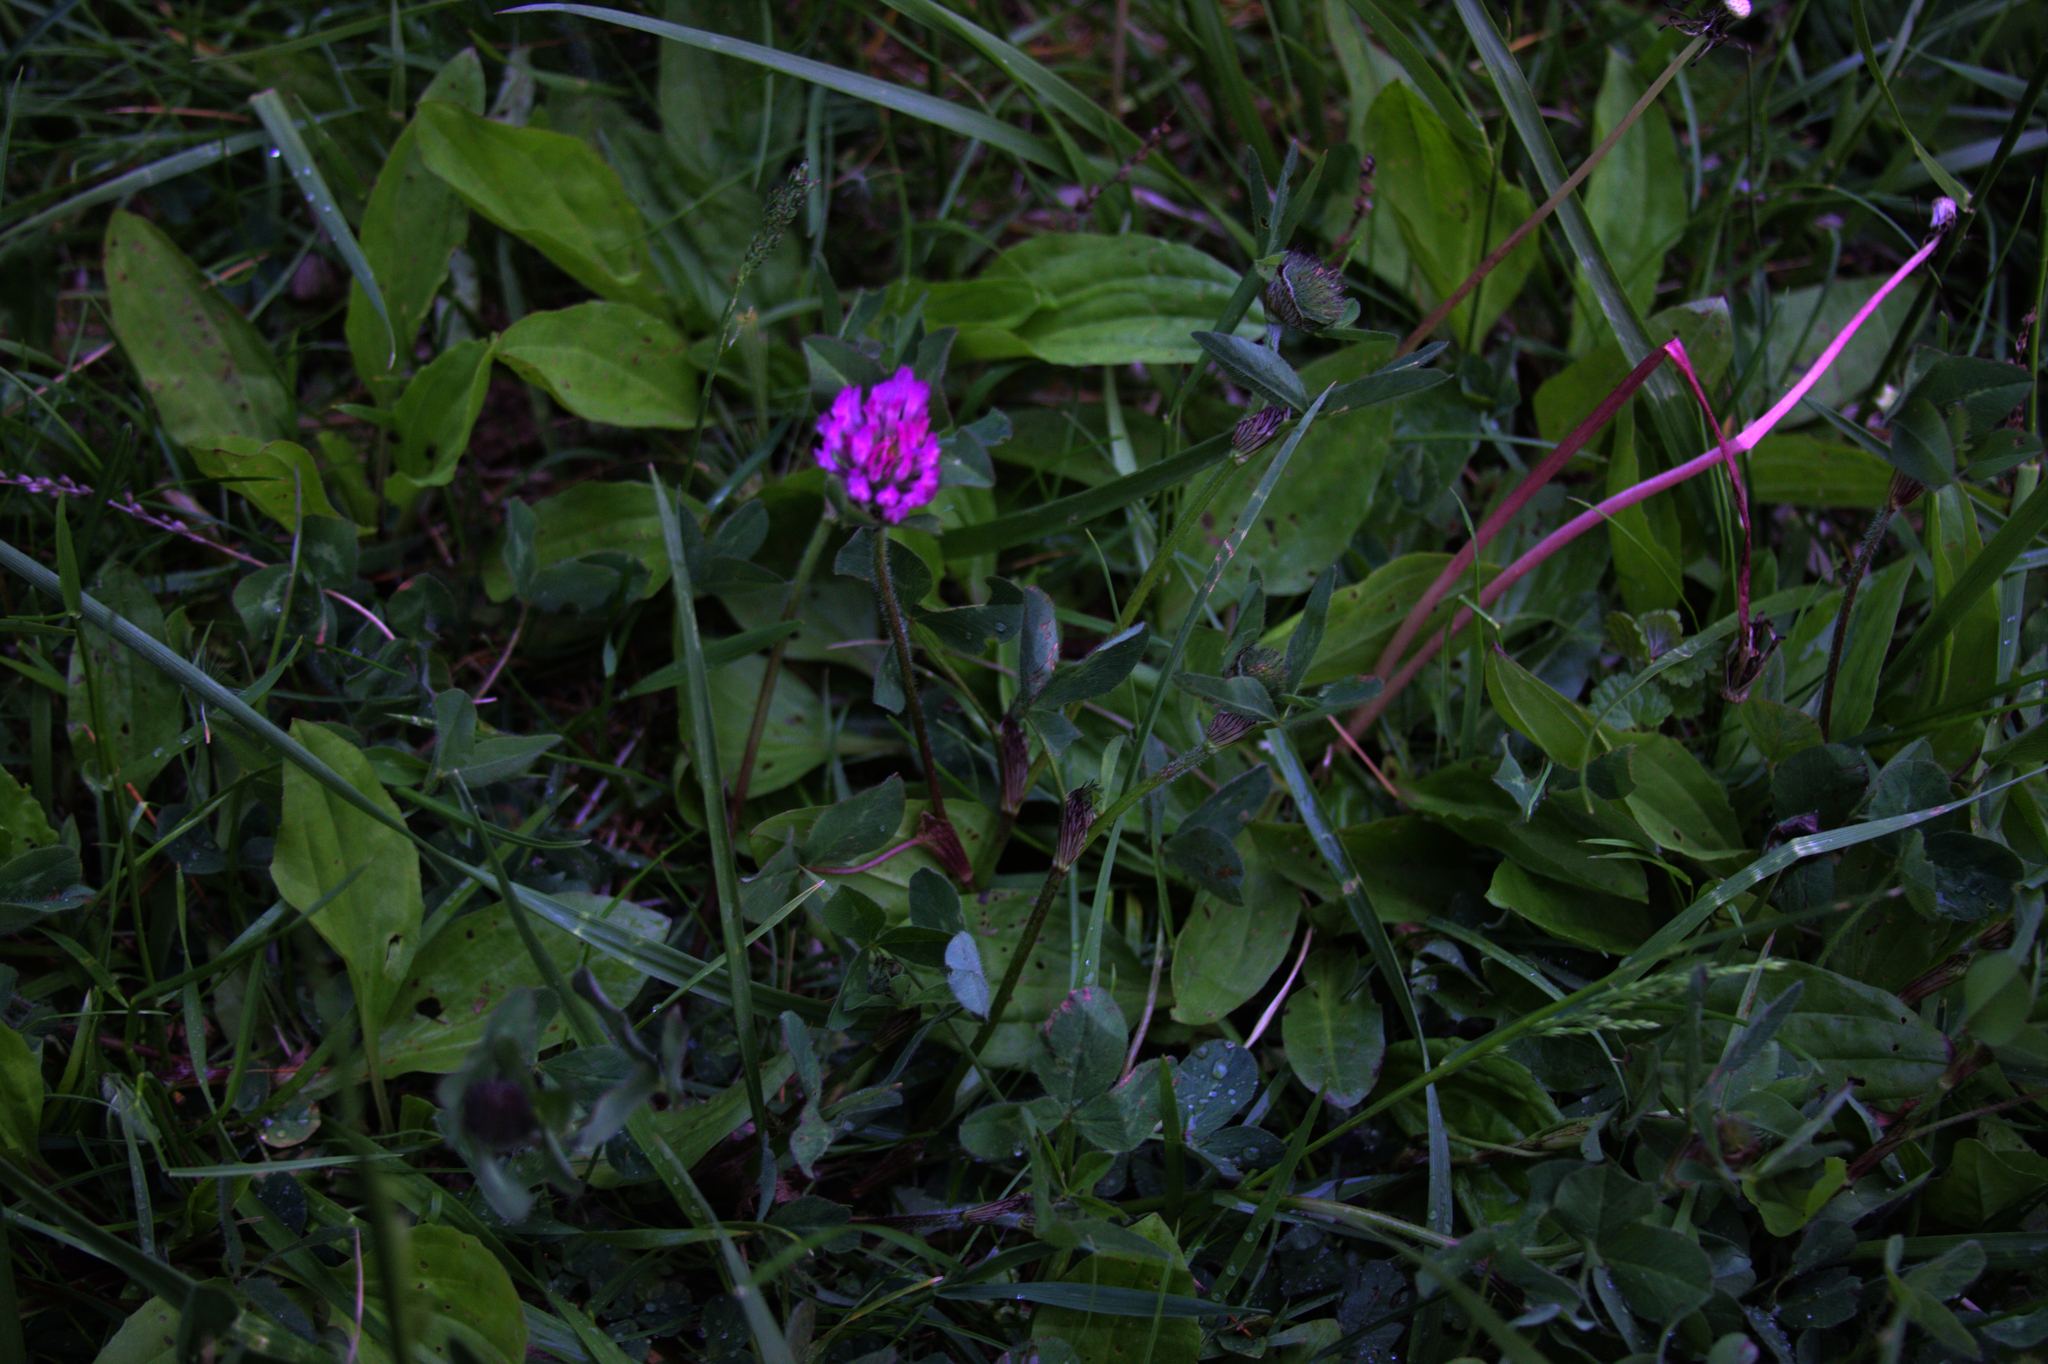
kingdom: Plantae
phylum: Tracheophyta
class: Magnoliopsida
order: Fabales
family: Fabaceae
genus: Trifolium
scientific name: Trifolium pratense
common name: Red clover
